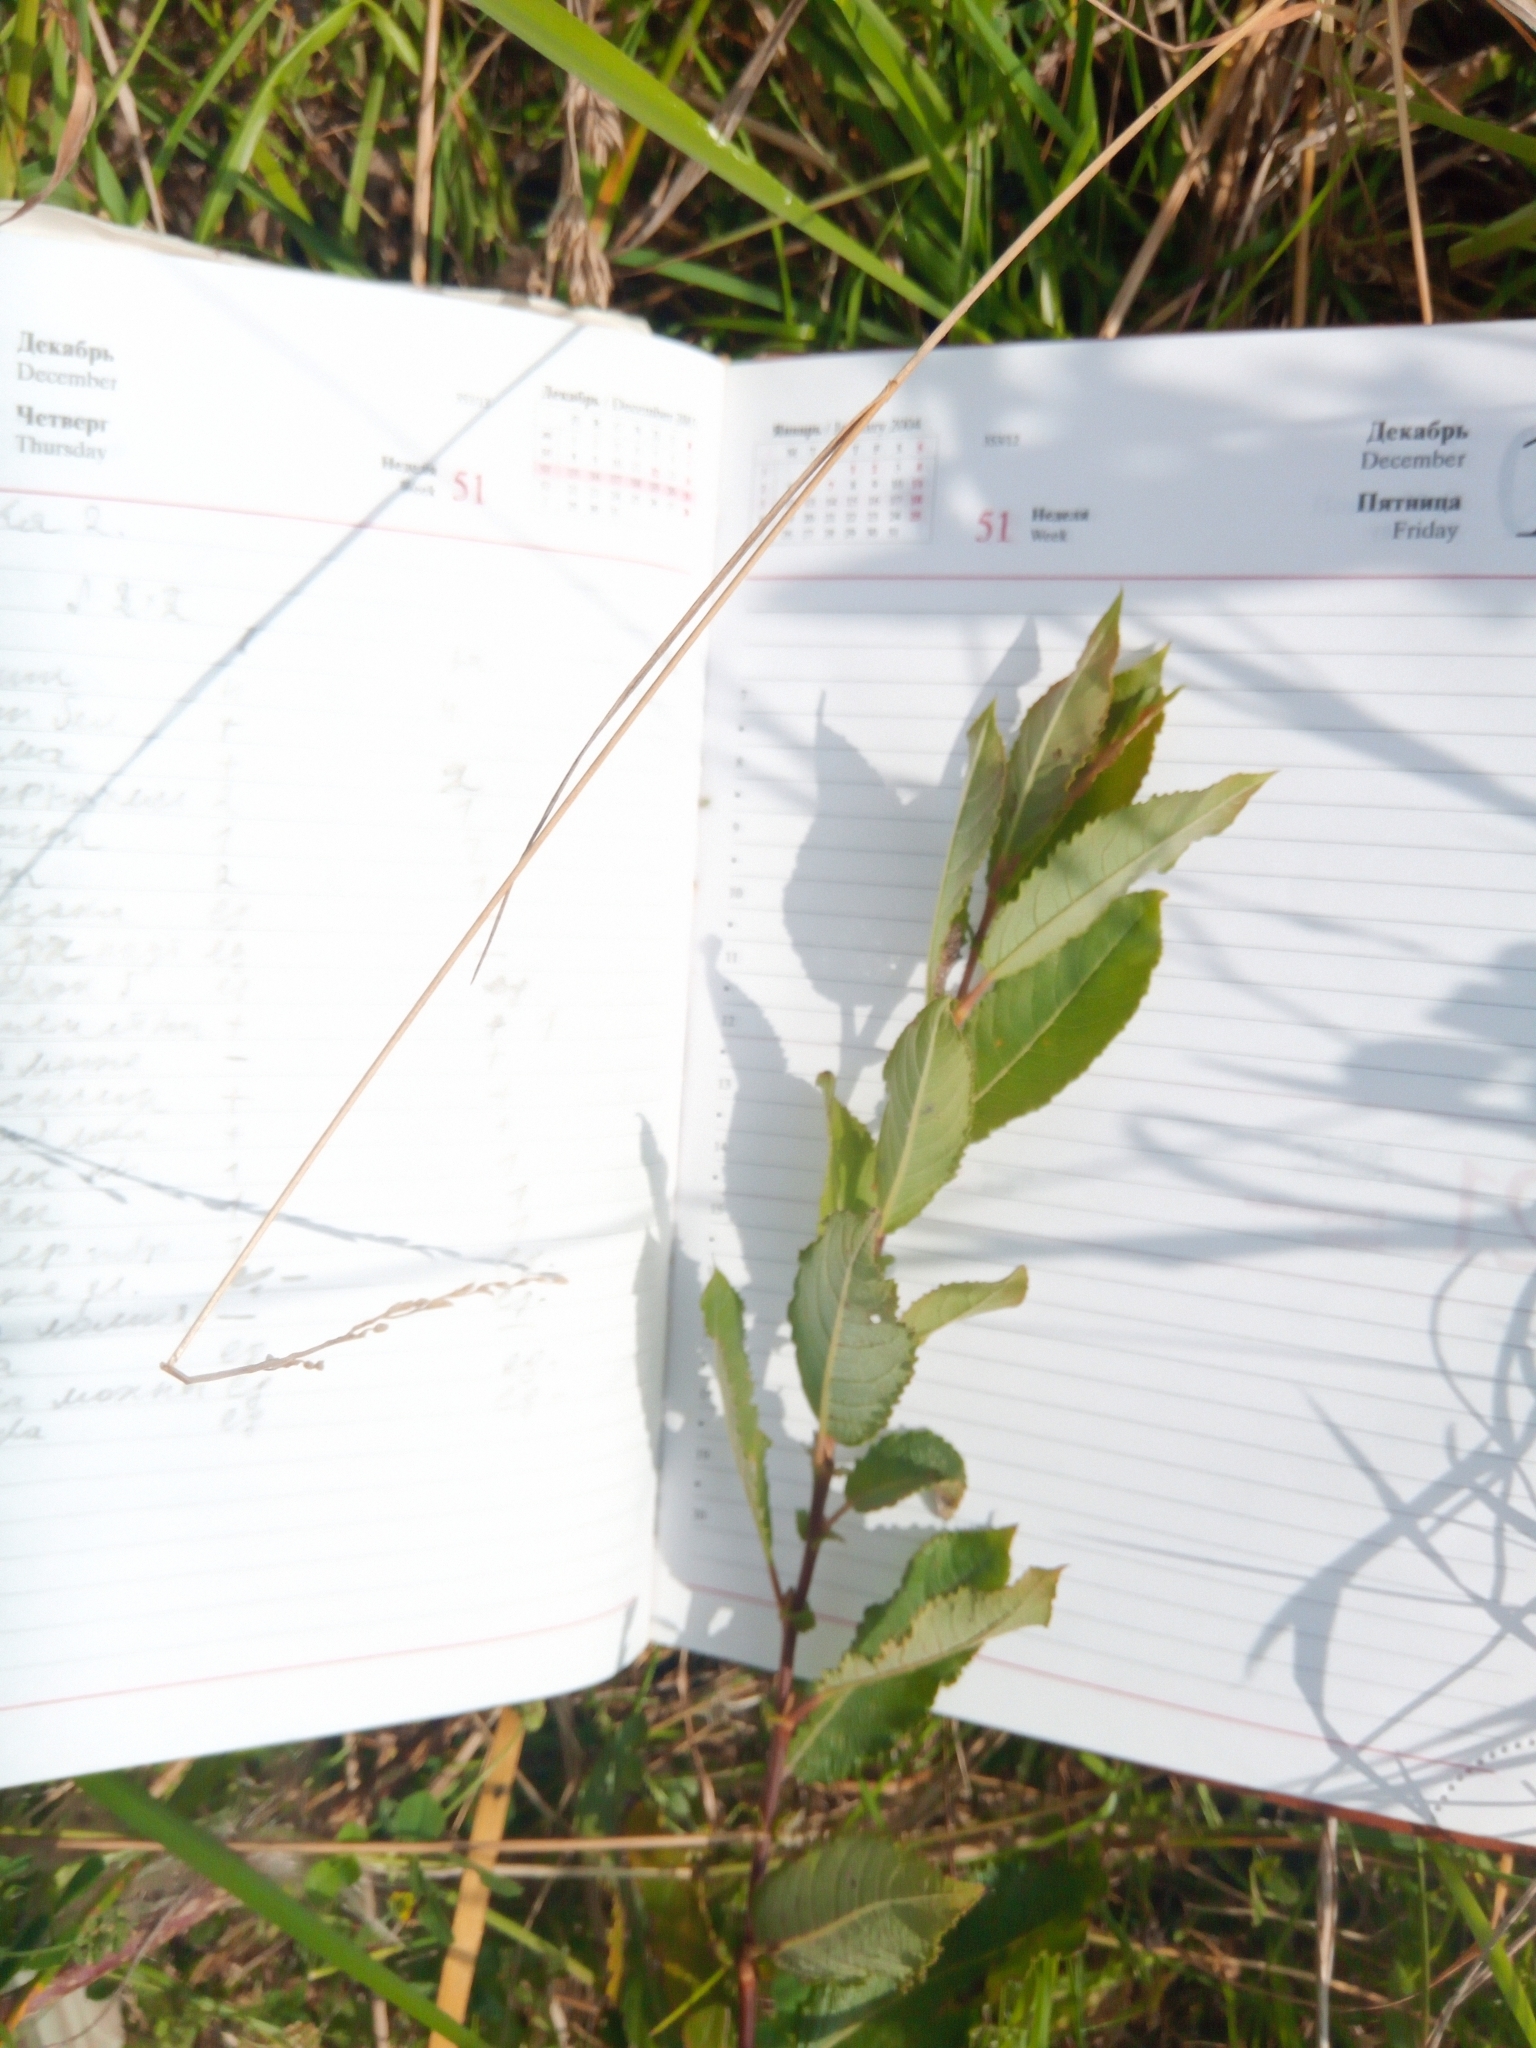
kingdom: Plantae
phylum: Tracheophyta
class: Magnoliopsida
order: Malpighiales
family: Salicaceae
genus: Salix
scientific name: Salix myrsinifolia
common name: Dark-leaved willow
